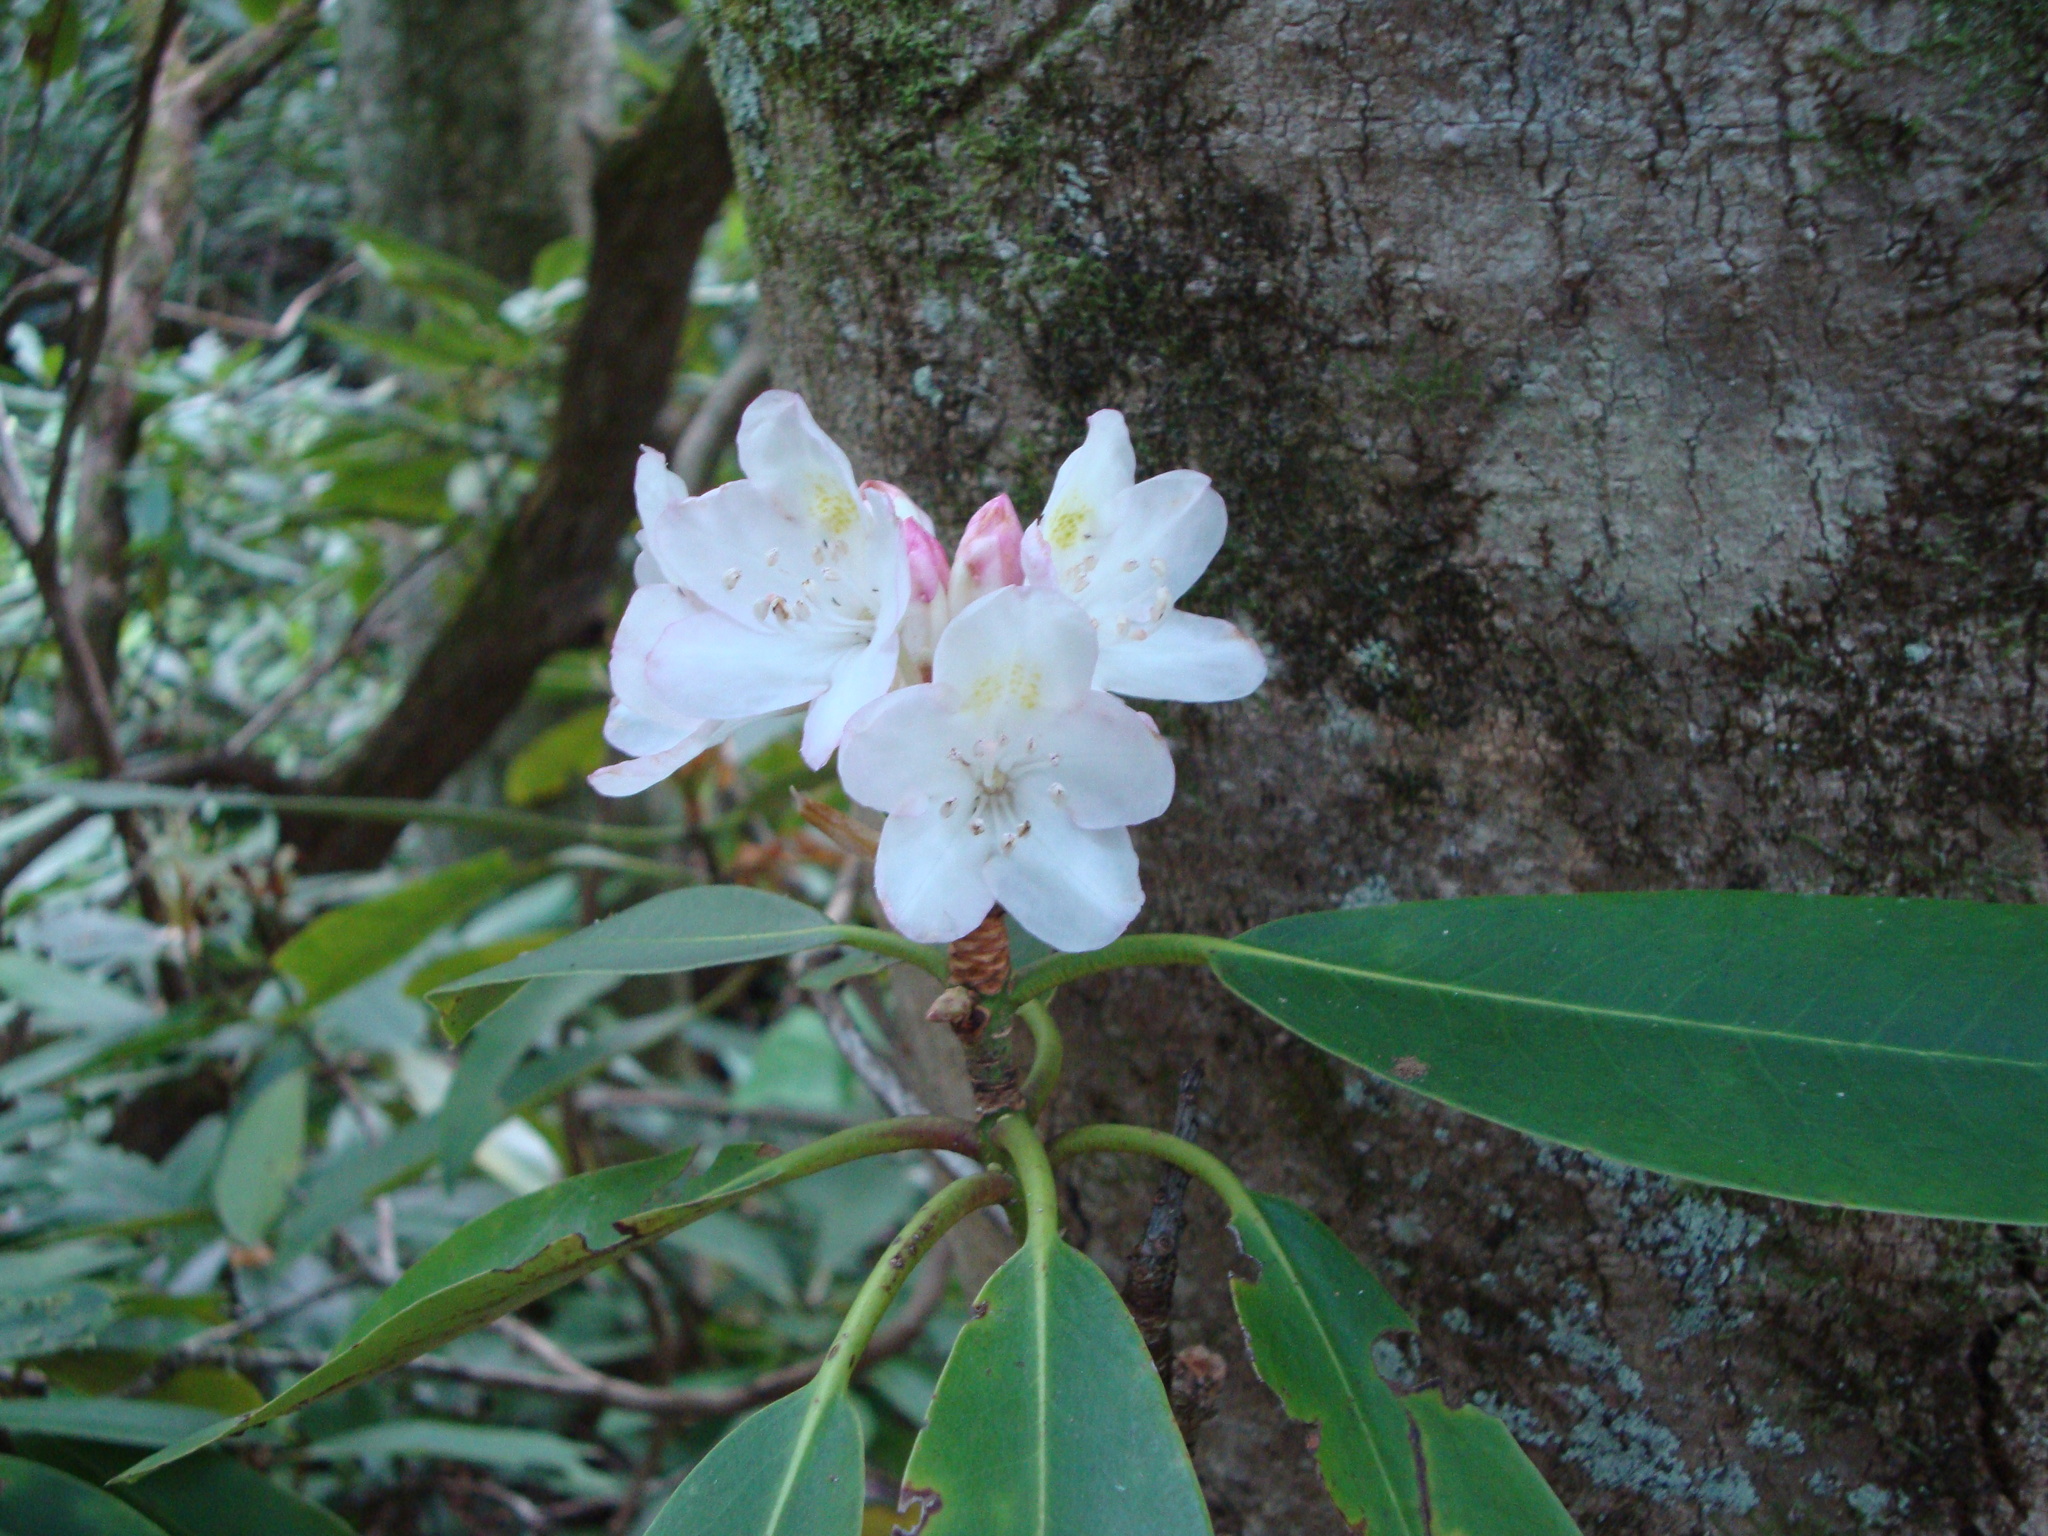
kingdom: Plantae
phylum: Tracheophyta
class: Magnoliopsida
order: Ericales
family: Ericaceae
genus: Rhododendron
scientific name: Rhododendron maximum
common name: Great rhododendron
